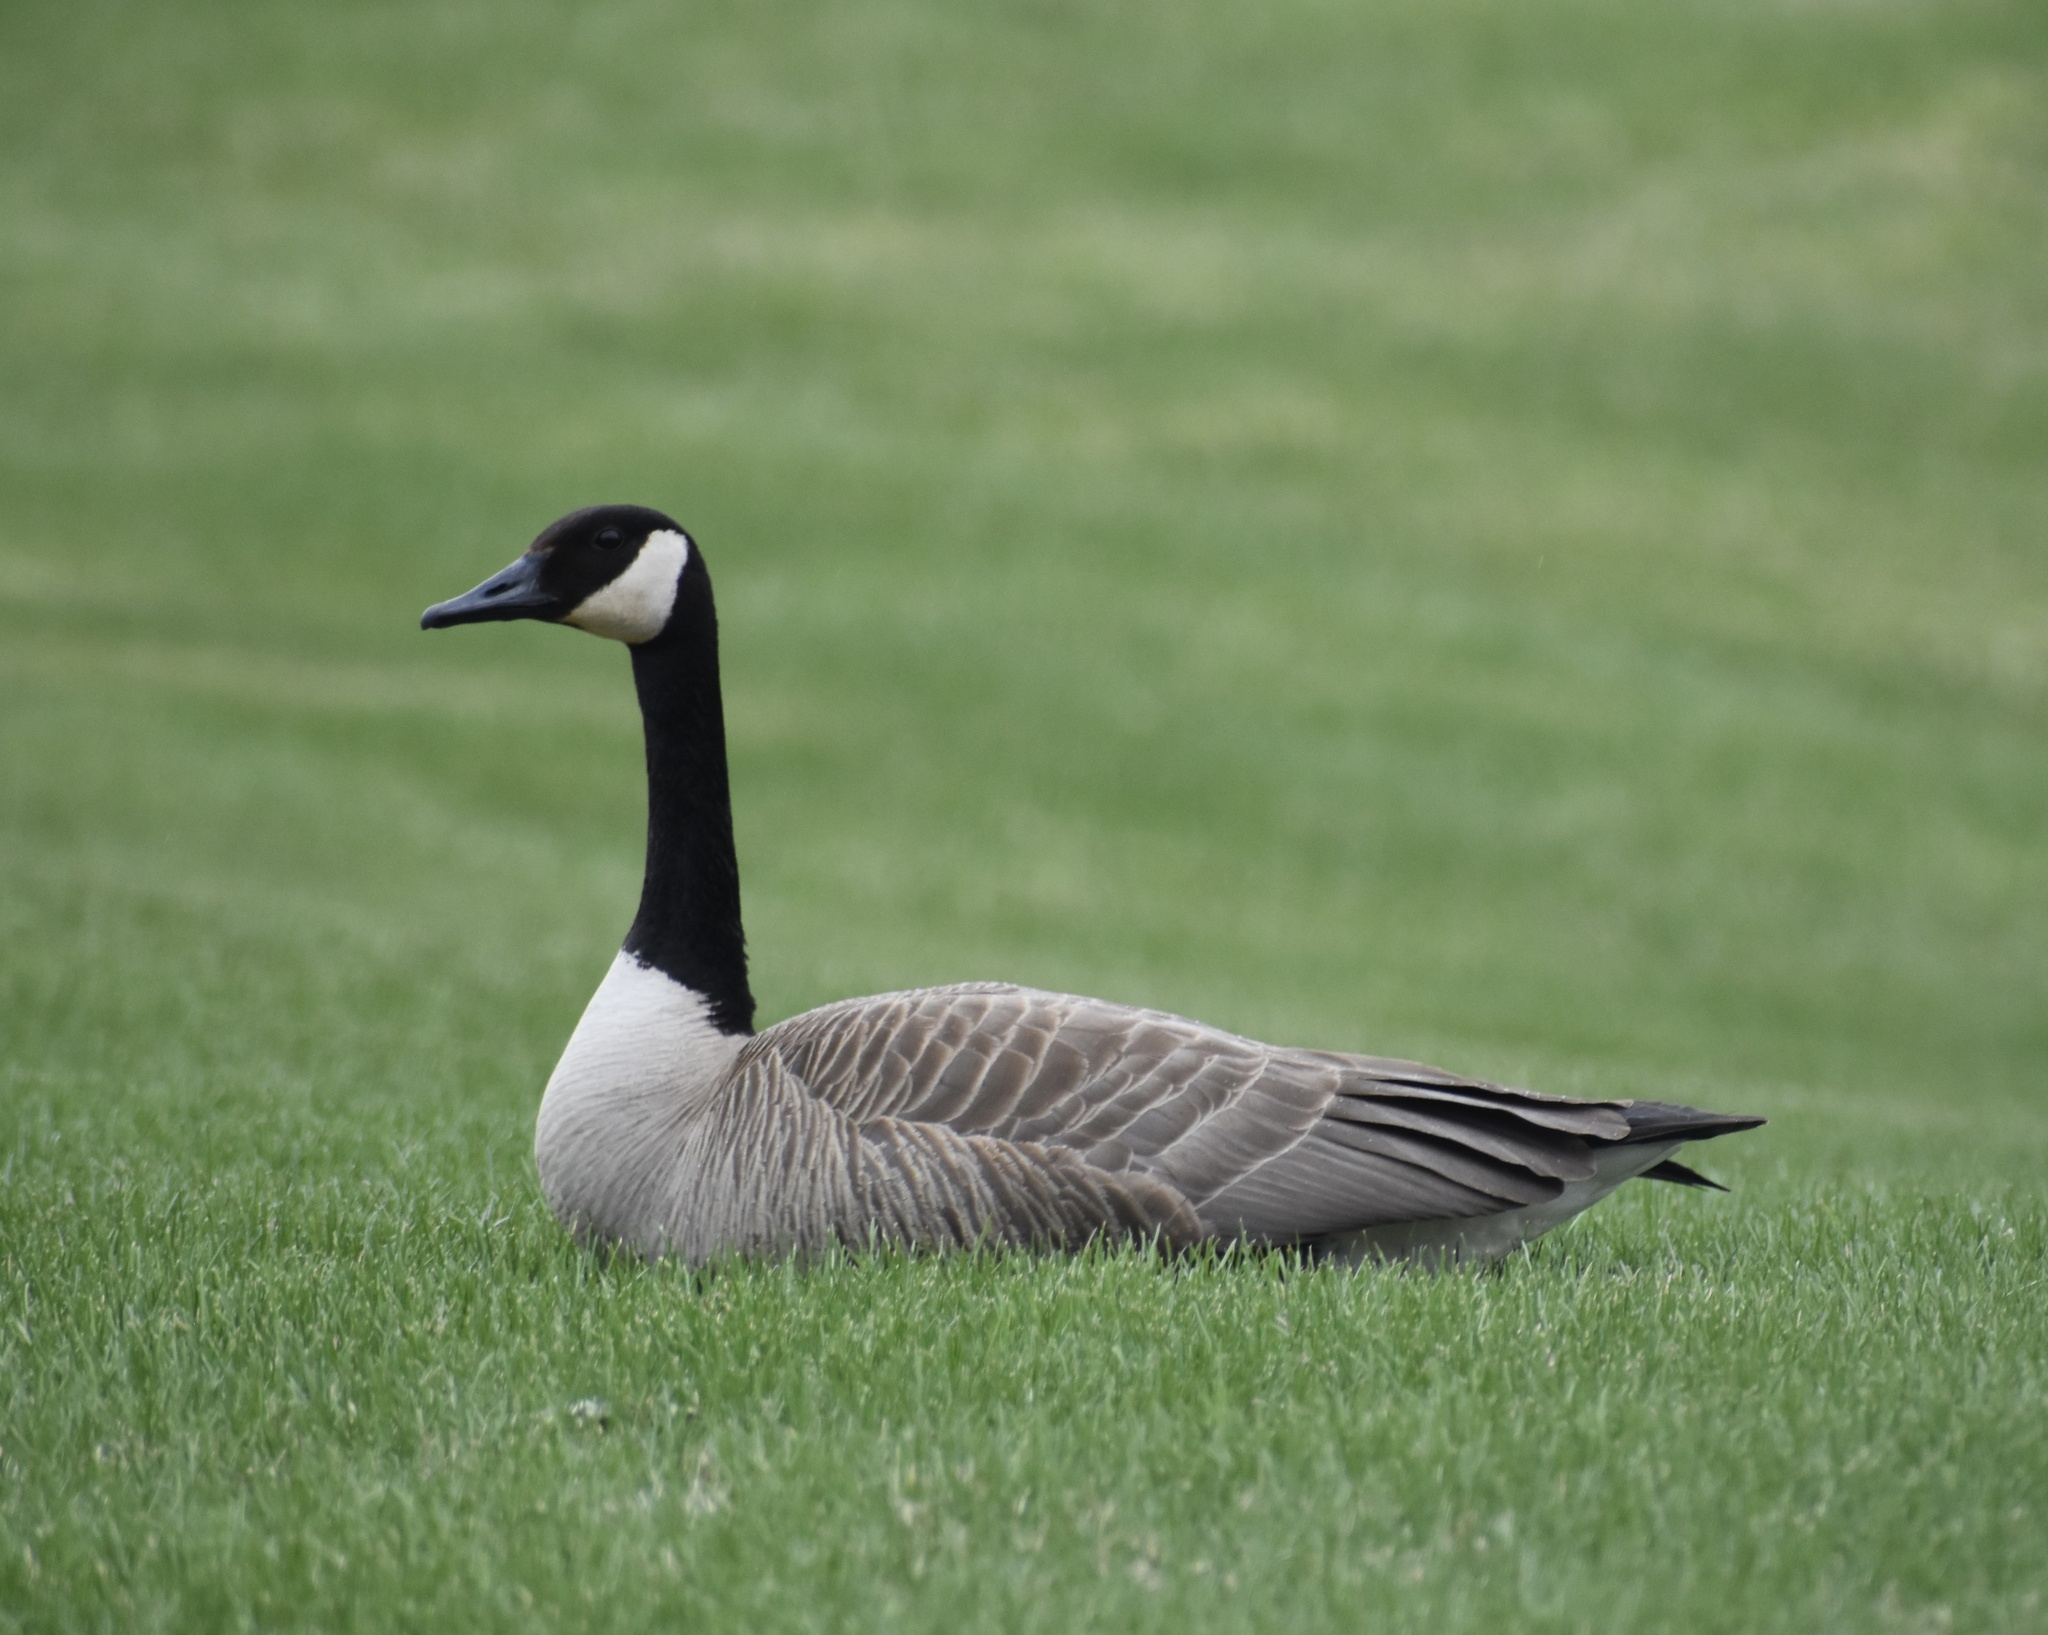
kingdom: Animalia
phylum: Chordata
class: Aves
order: Anseriformes
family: Anatidae
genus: Branta
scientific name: Branta canadensis
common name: Canada goose
